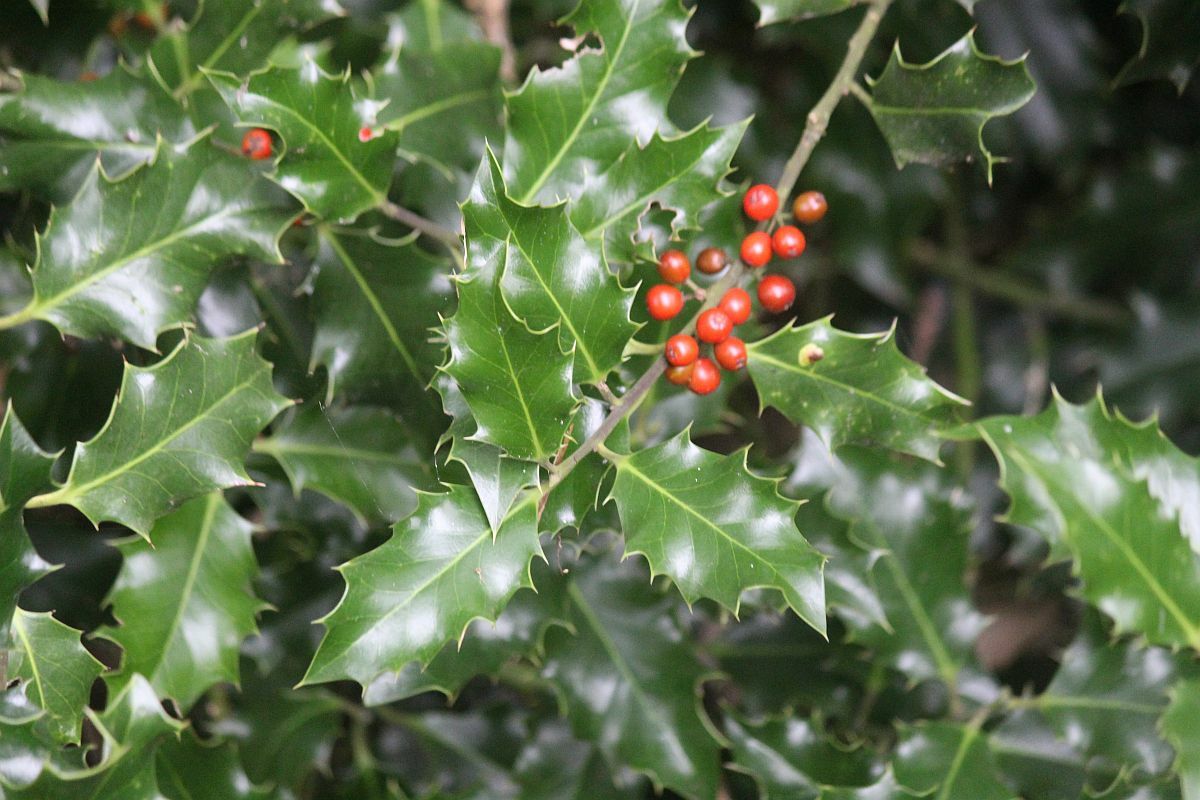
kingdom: Plantae
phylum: Tracheophyta
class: Magnoliopsida
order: Aquifoliales
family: Aquifoliaceae
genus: Ilex
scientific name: Ilex aquifolium
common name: English holly
